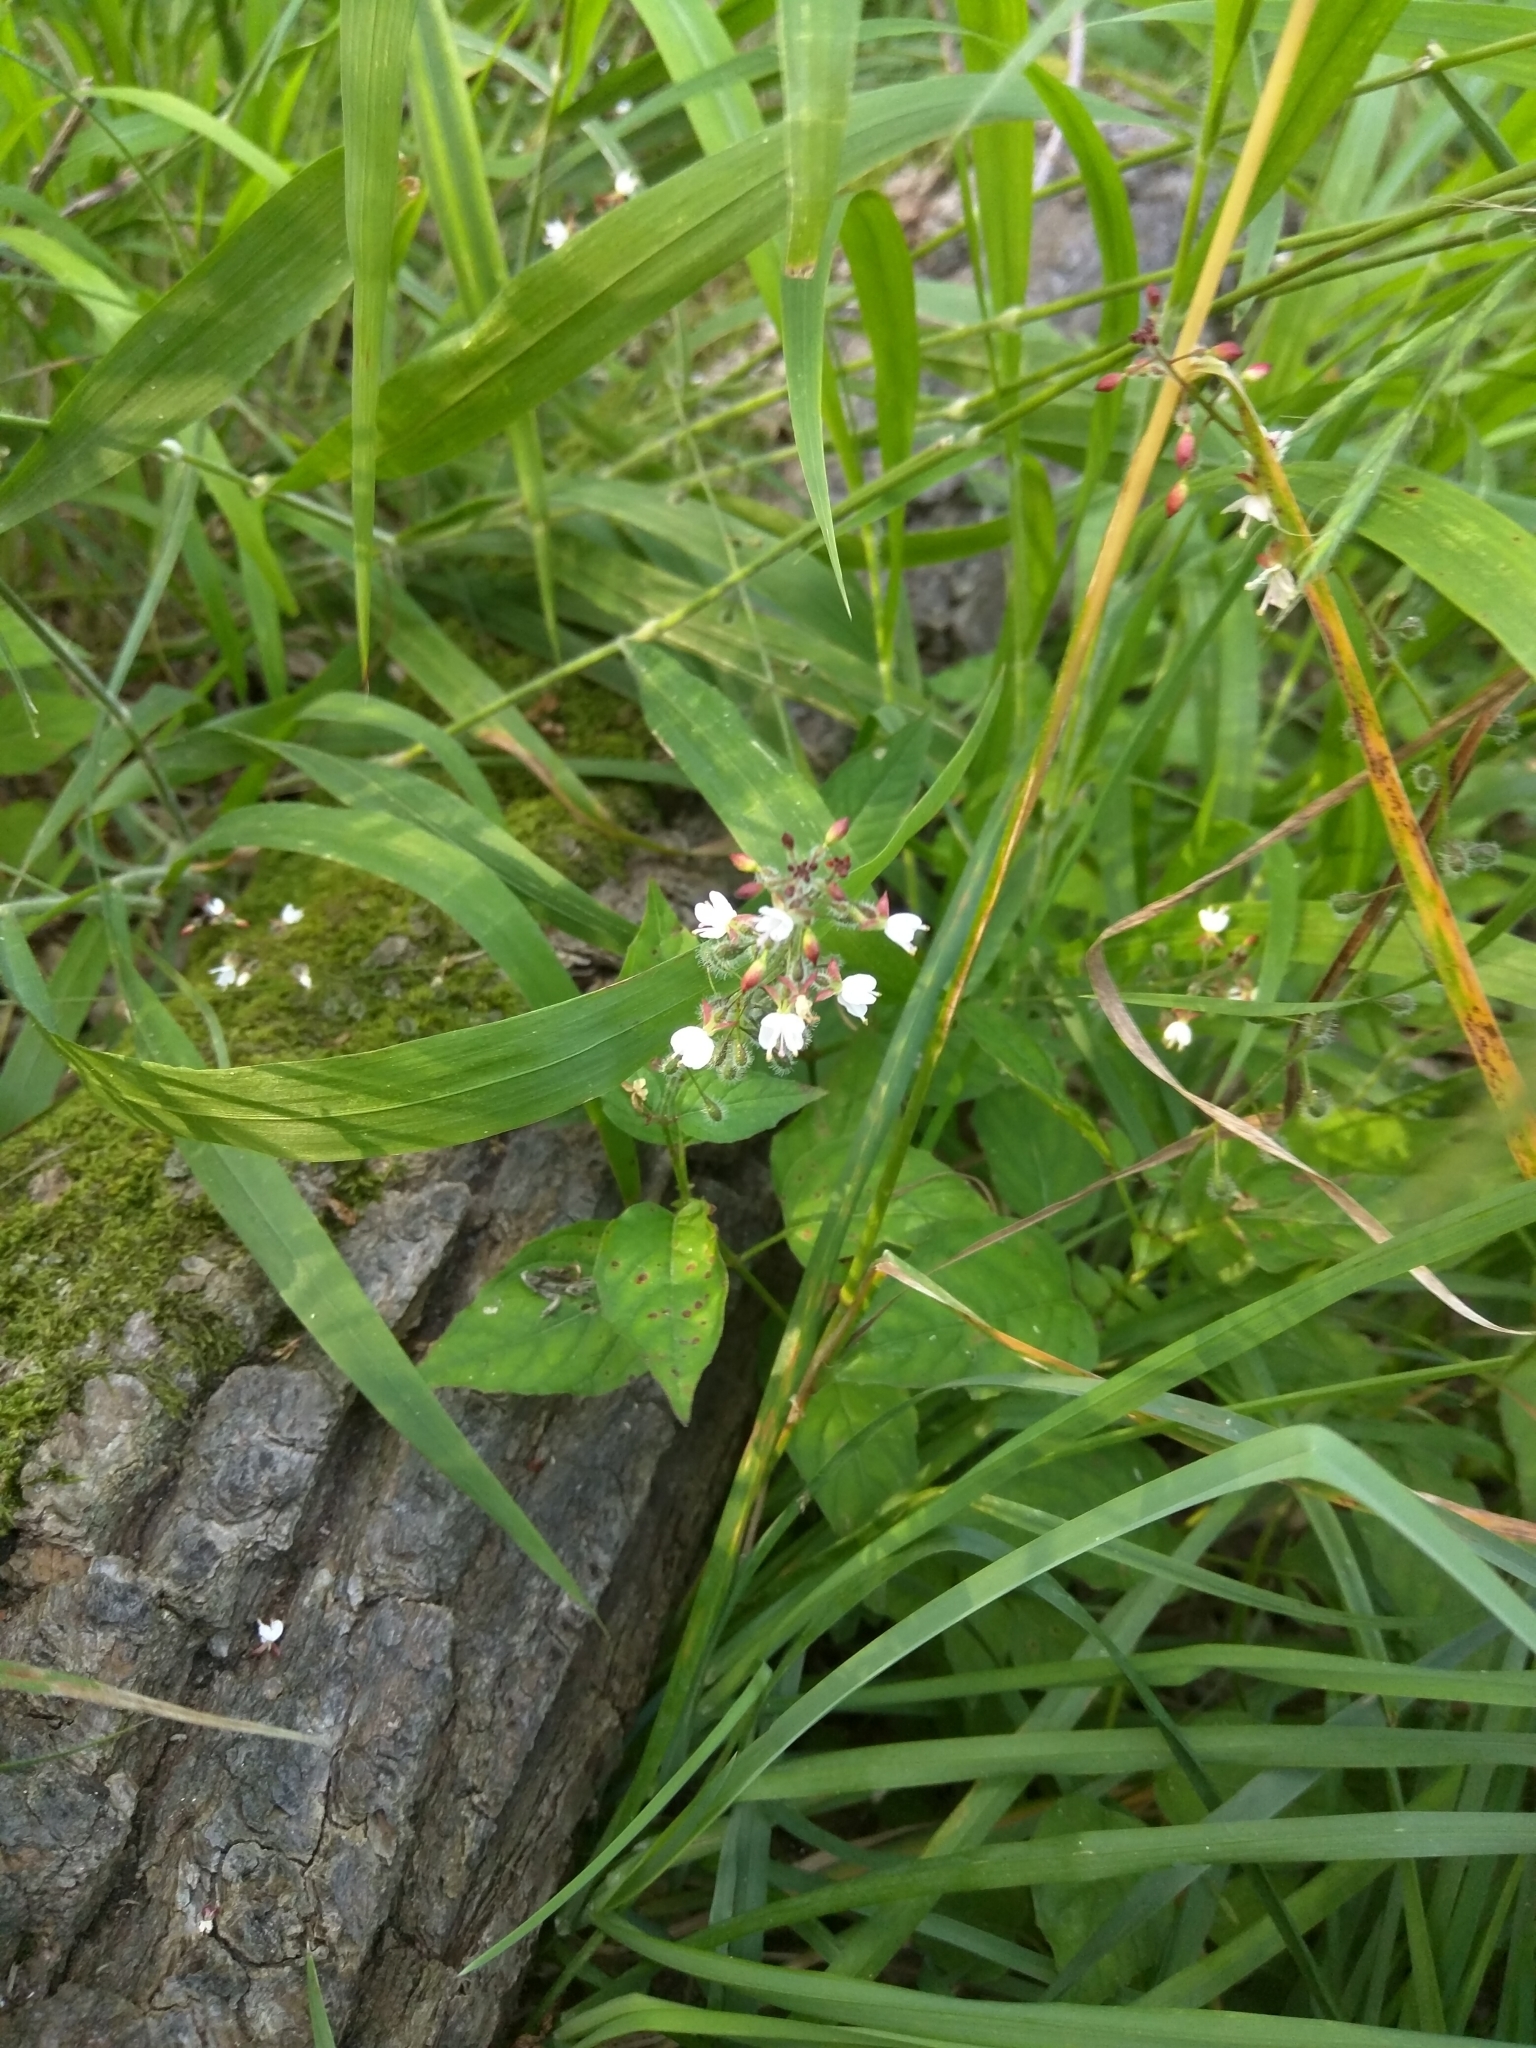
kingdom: Plantae
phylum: Tracheophyta
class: Magnoliopsida
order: Myrtales
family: Onagraceae
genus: Circaea
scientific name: Circaea lutetiana
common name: Enchanter's-nightshade
